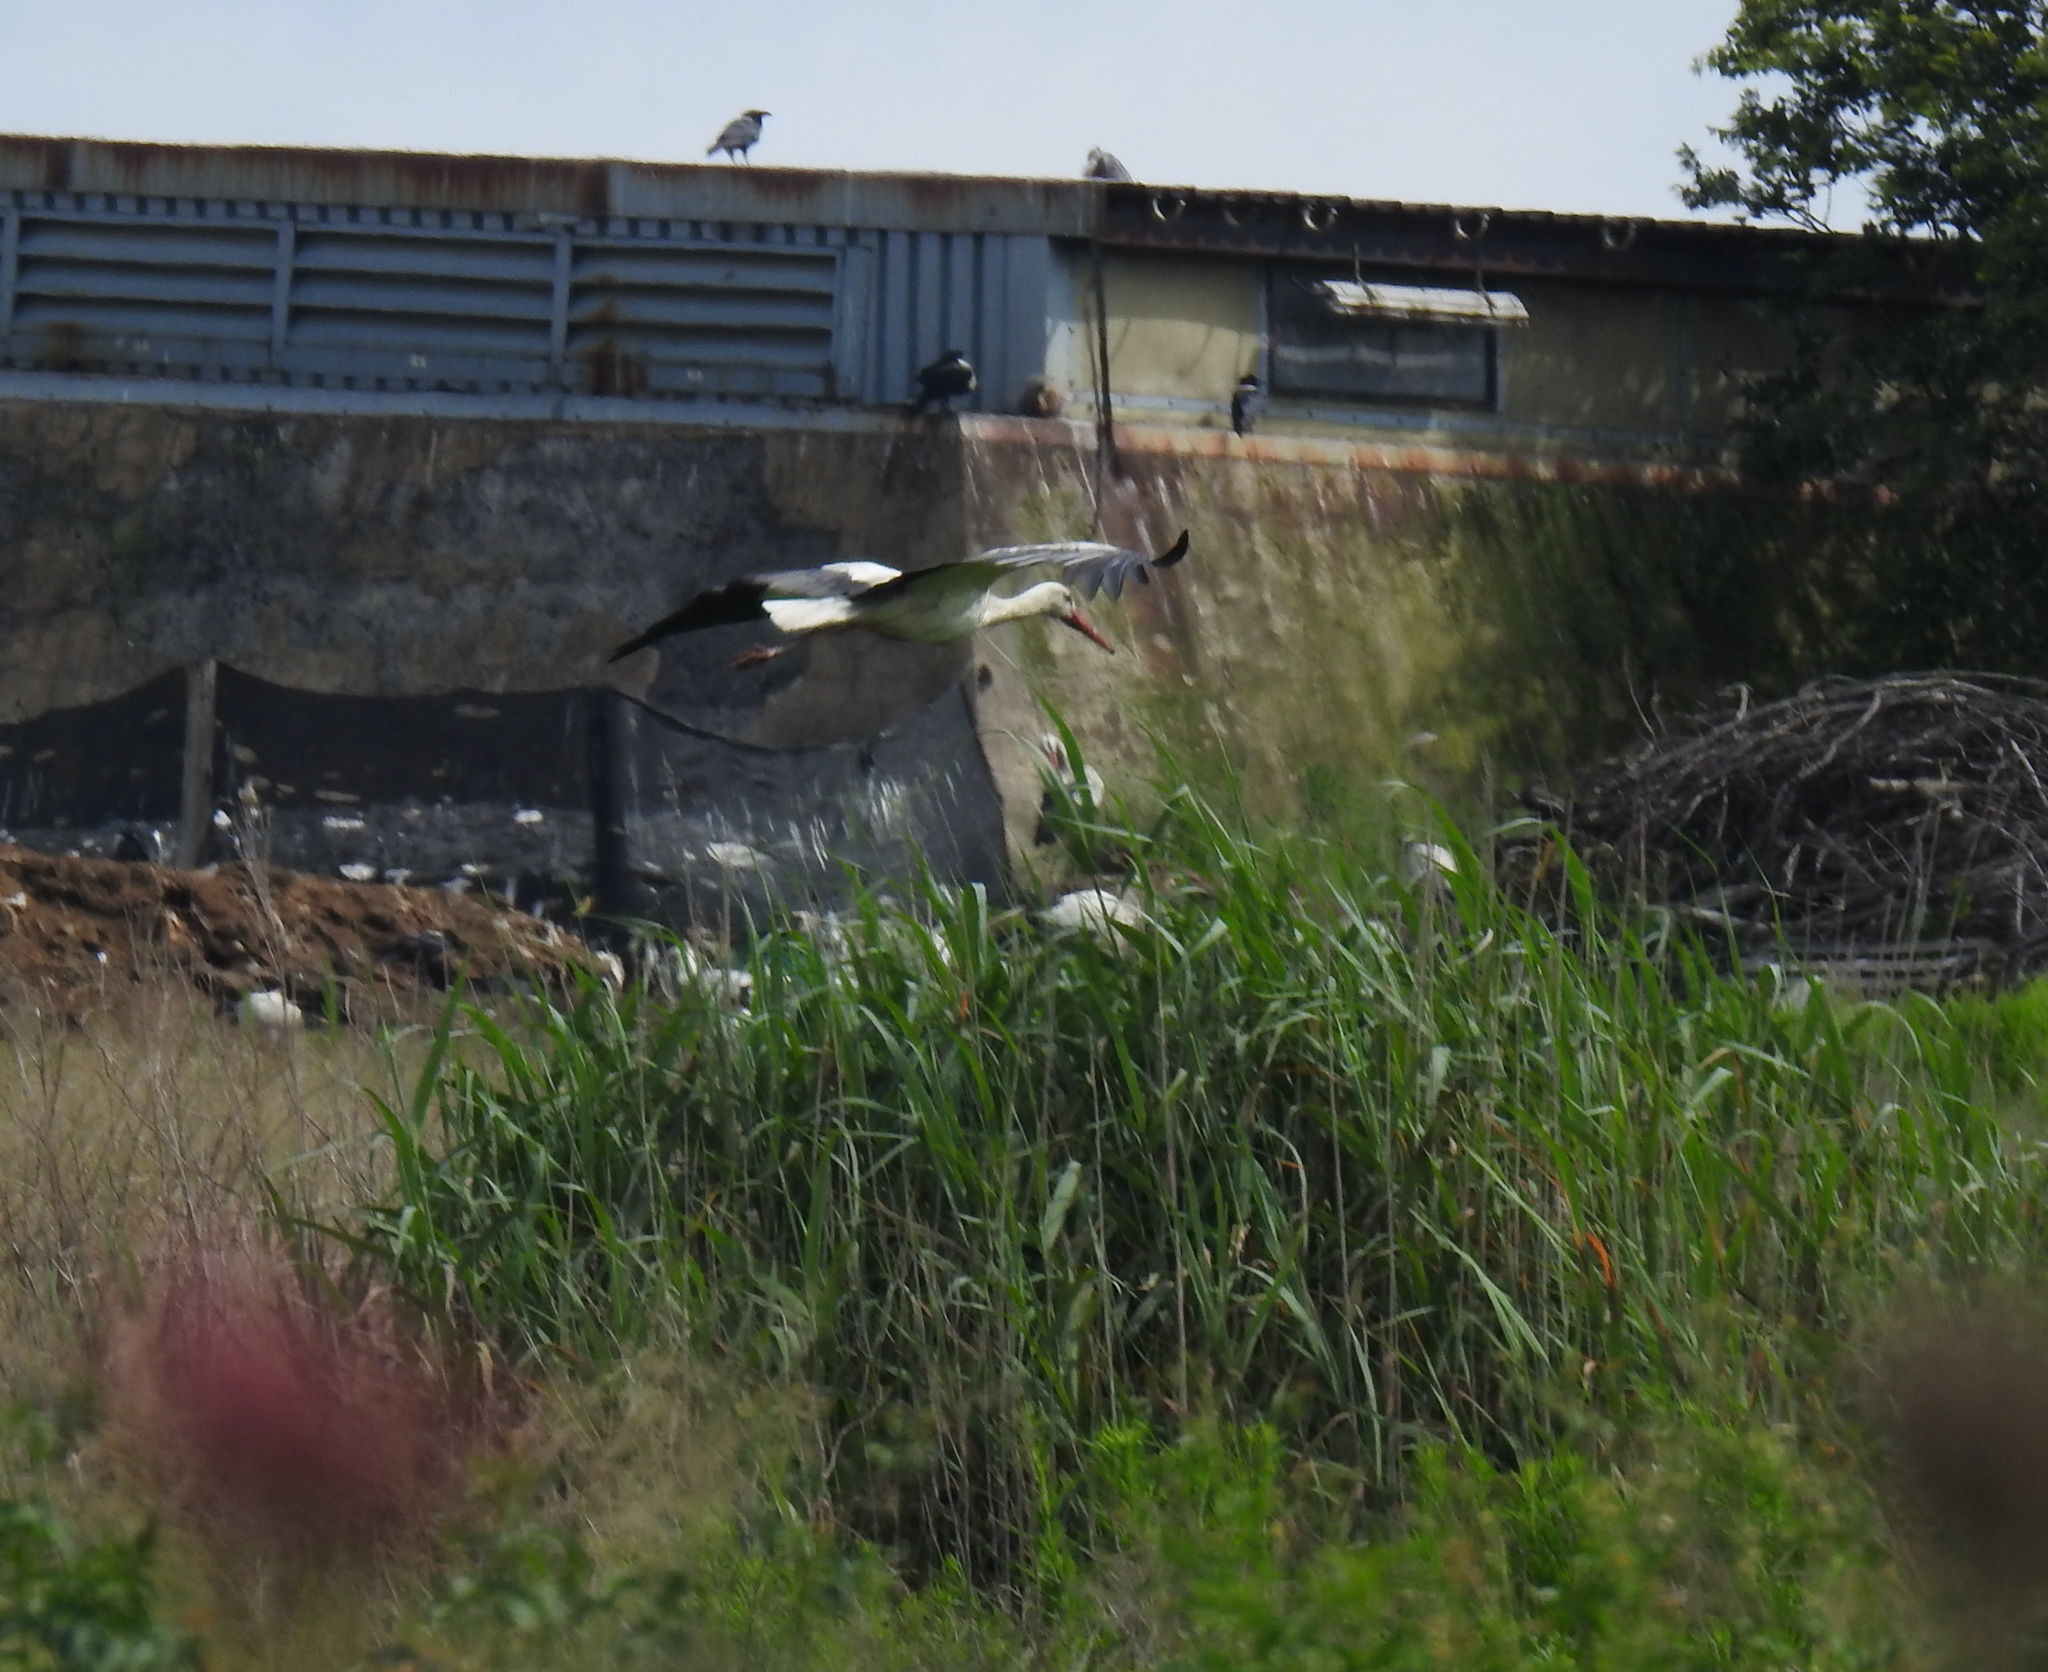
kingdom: Animalia
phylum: Chordata
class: Aves
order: Ciconiiformes
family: Ciconiidae
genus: Ciconia
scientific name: Ciconia ciconia
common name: White stork
